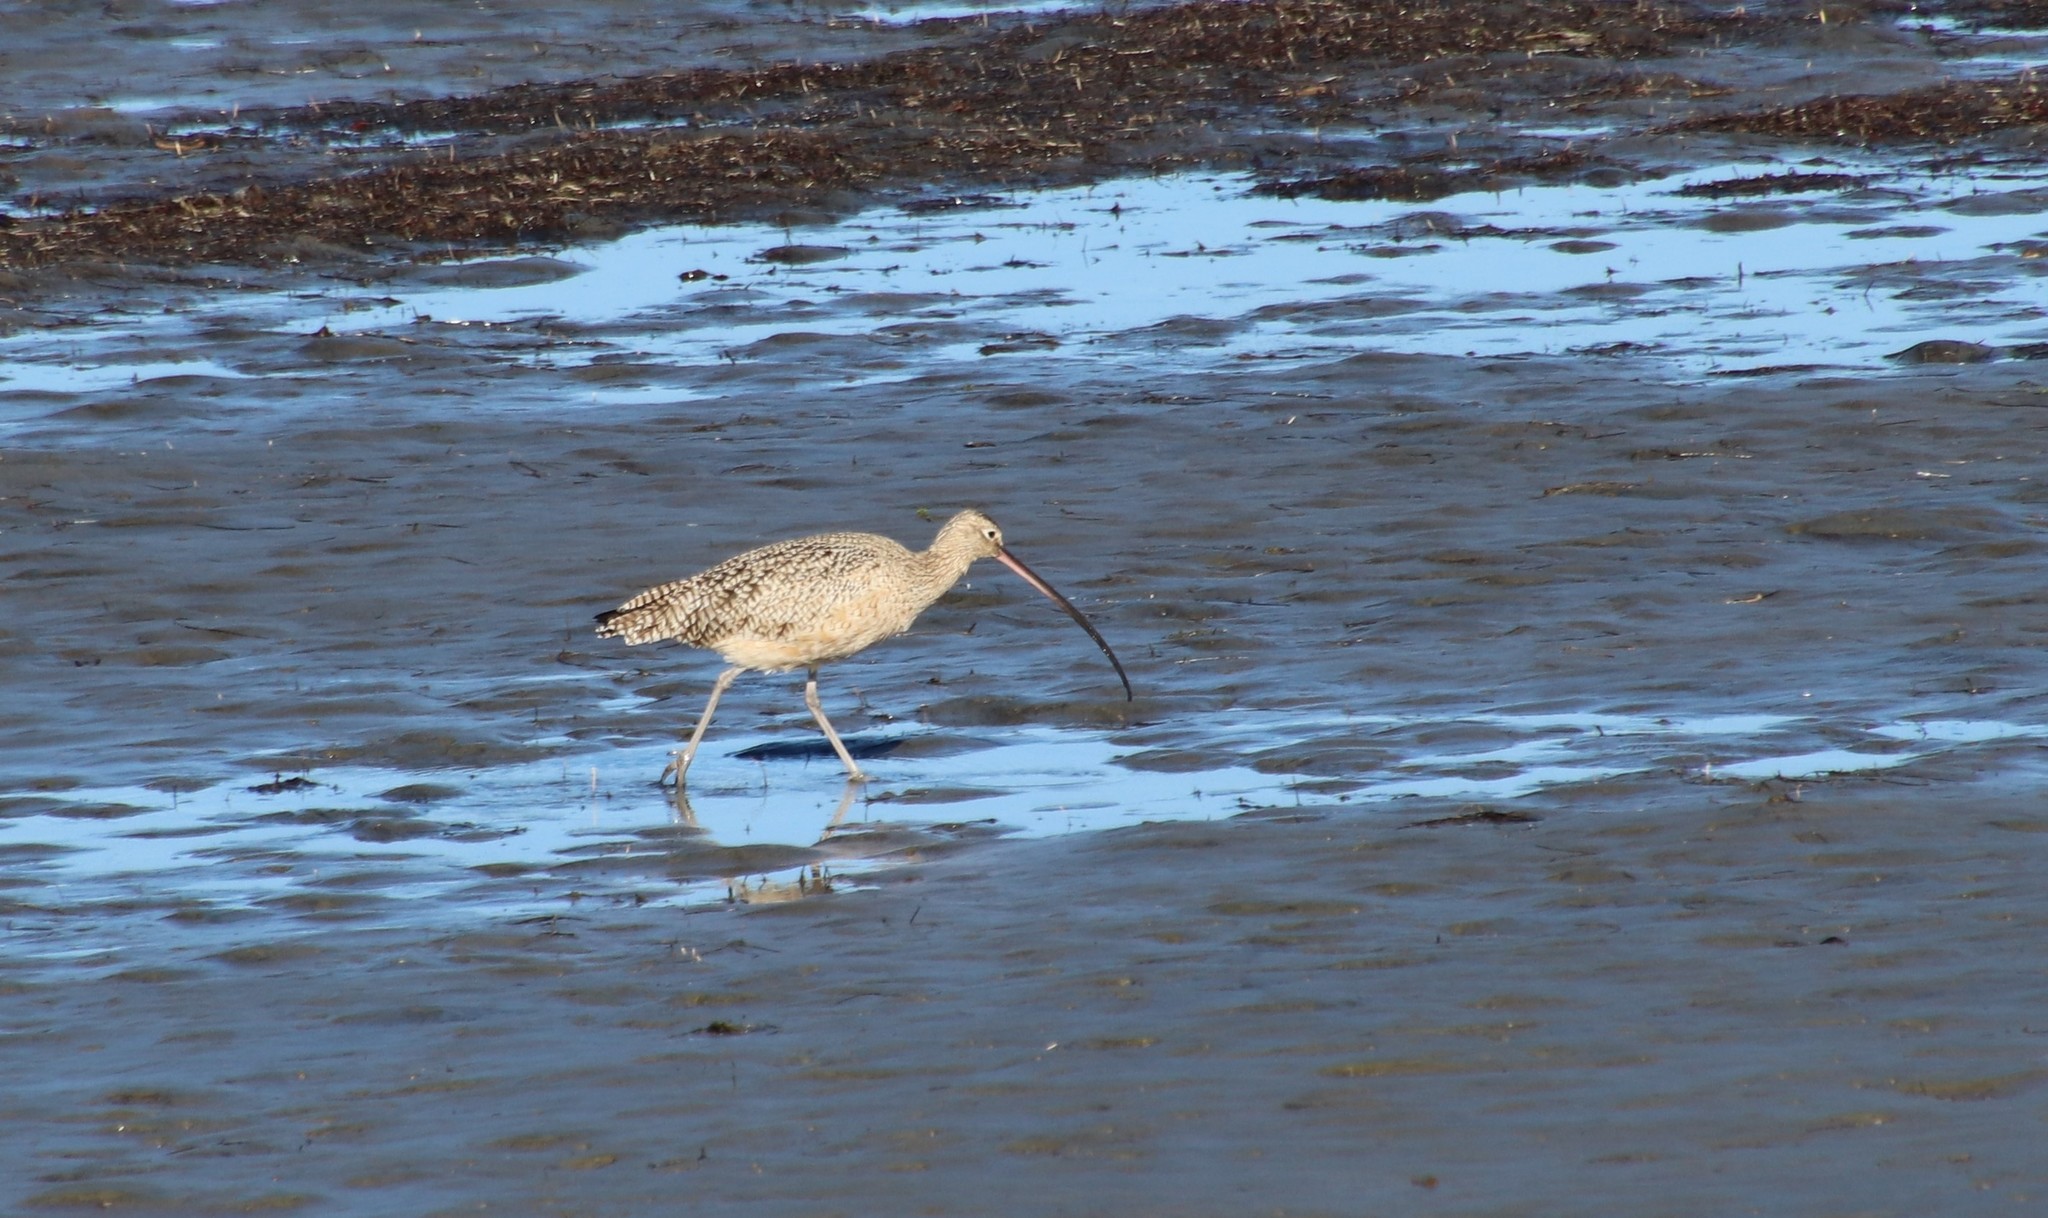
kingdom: Animalia
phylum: Chordata
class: Aves
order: Charadriiformes
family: Scolopacidae
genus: Numenius
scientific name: Numenius americanus
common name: Long-billed curlew
